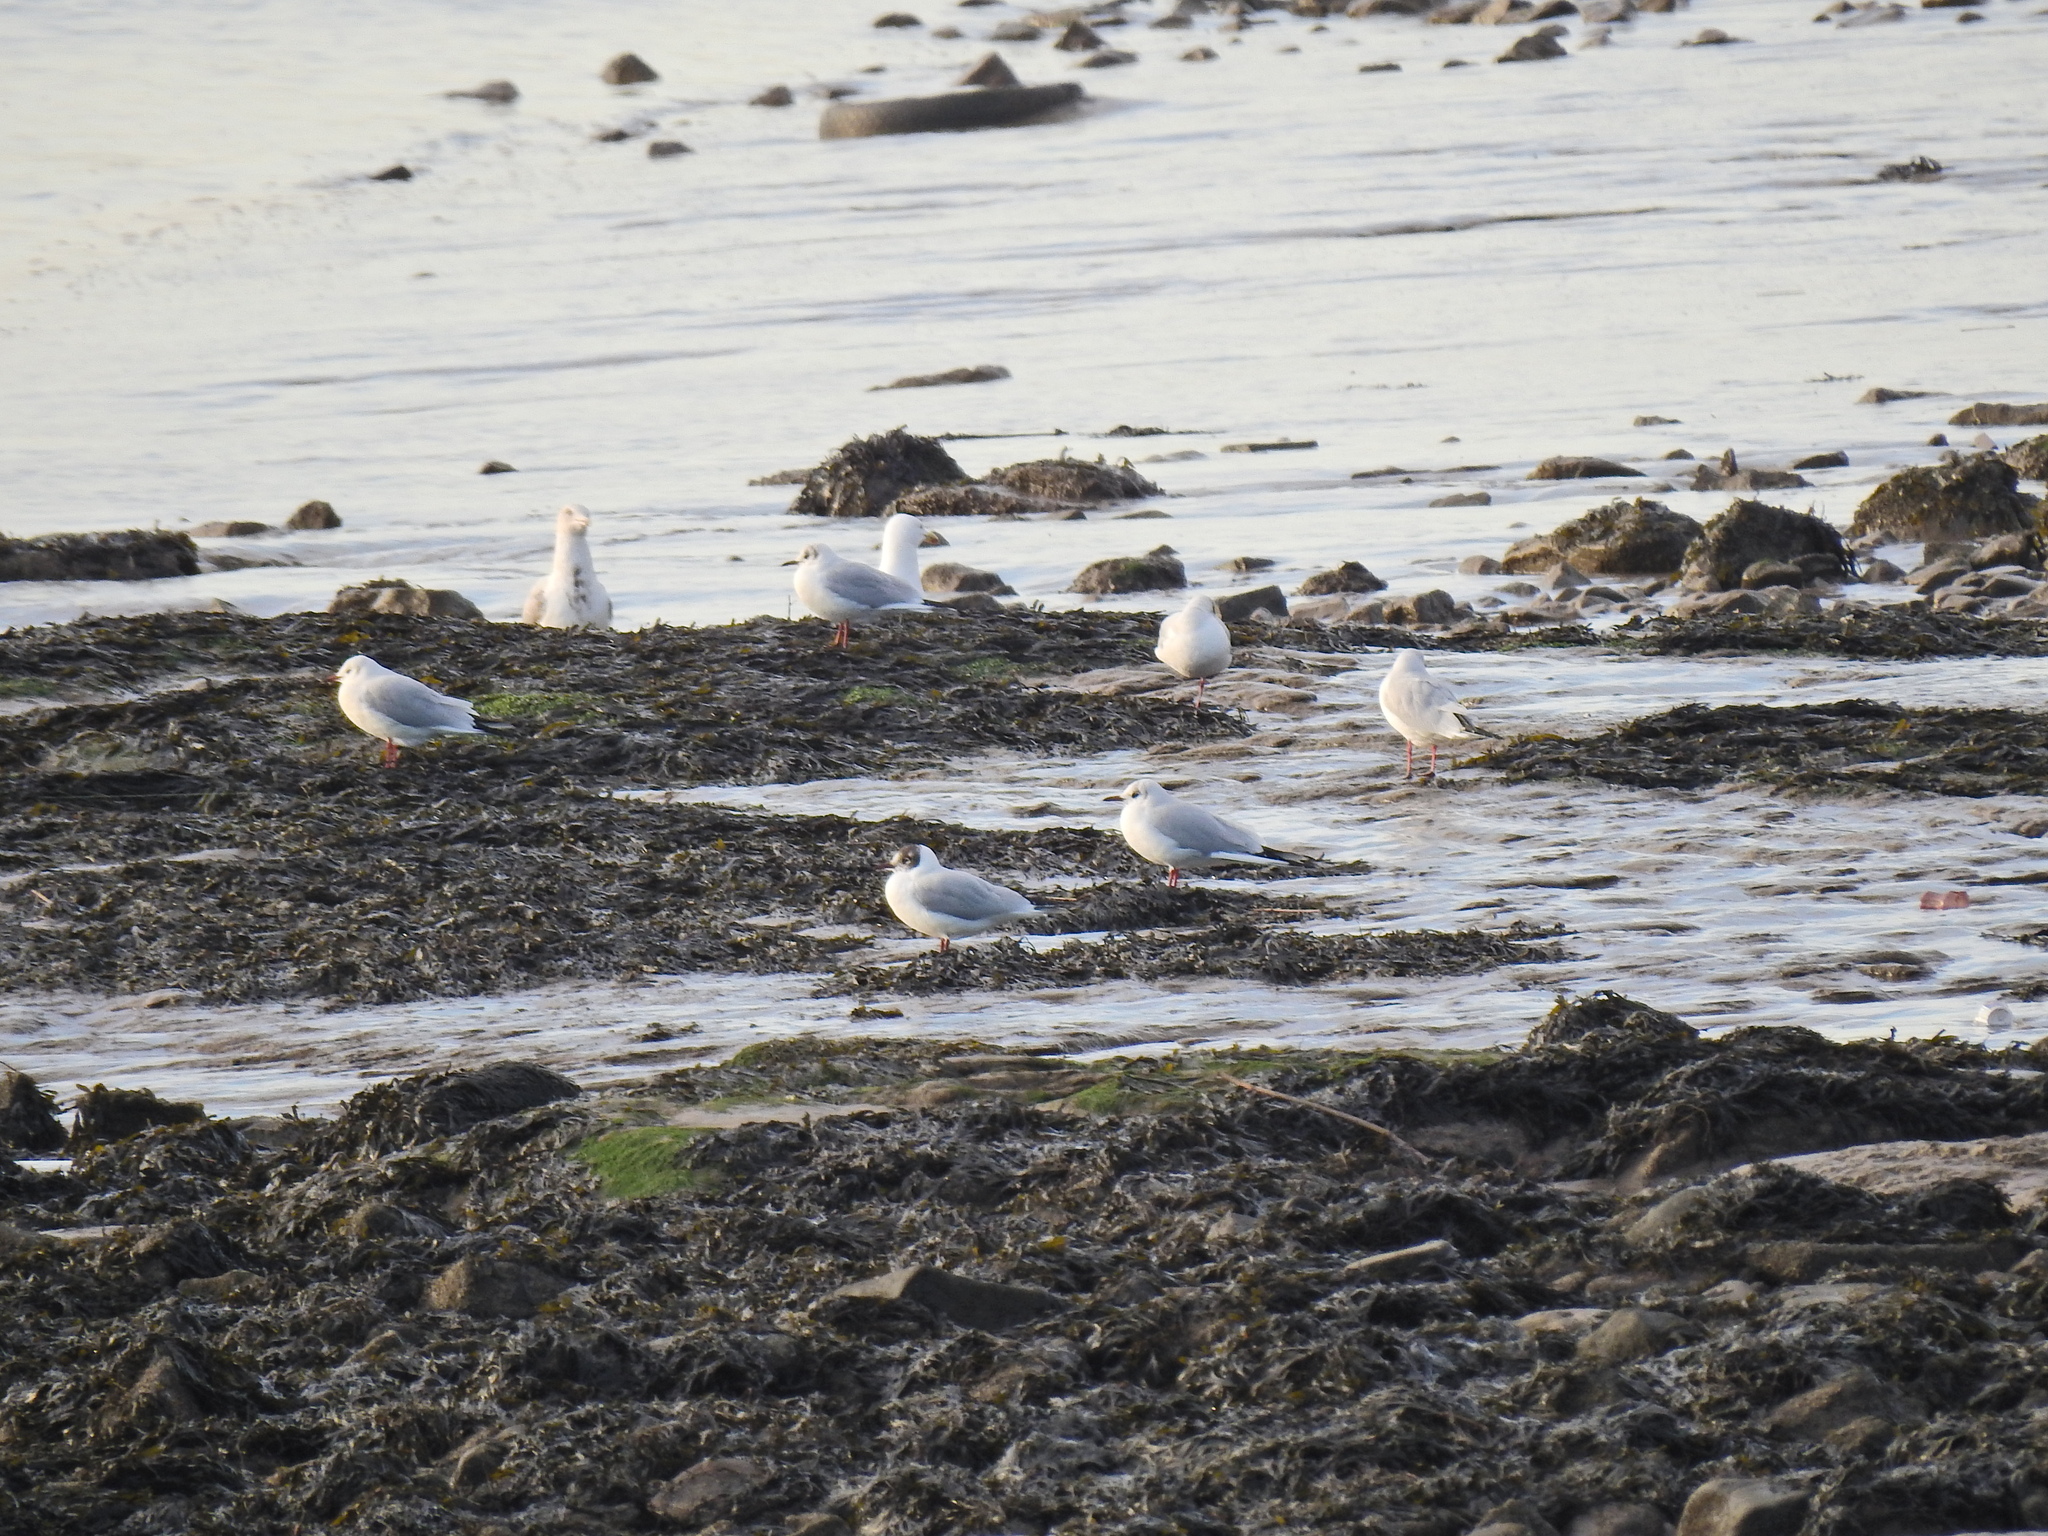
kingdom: Animalia
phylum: Chordata
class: Aves
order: Charadriiformes
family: Laridae
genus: Chroicocephalus
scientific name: Chroicocephalus ridibundus
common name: Black-headed gull
